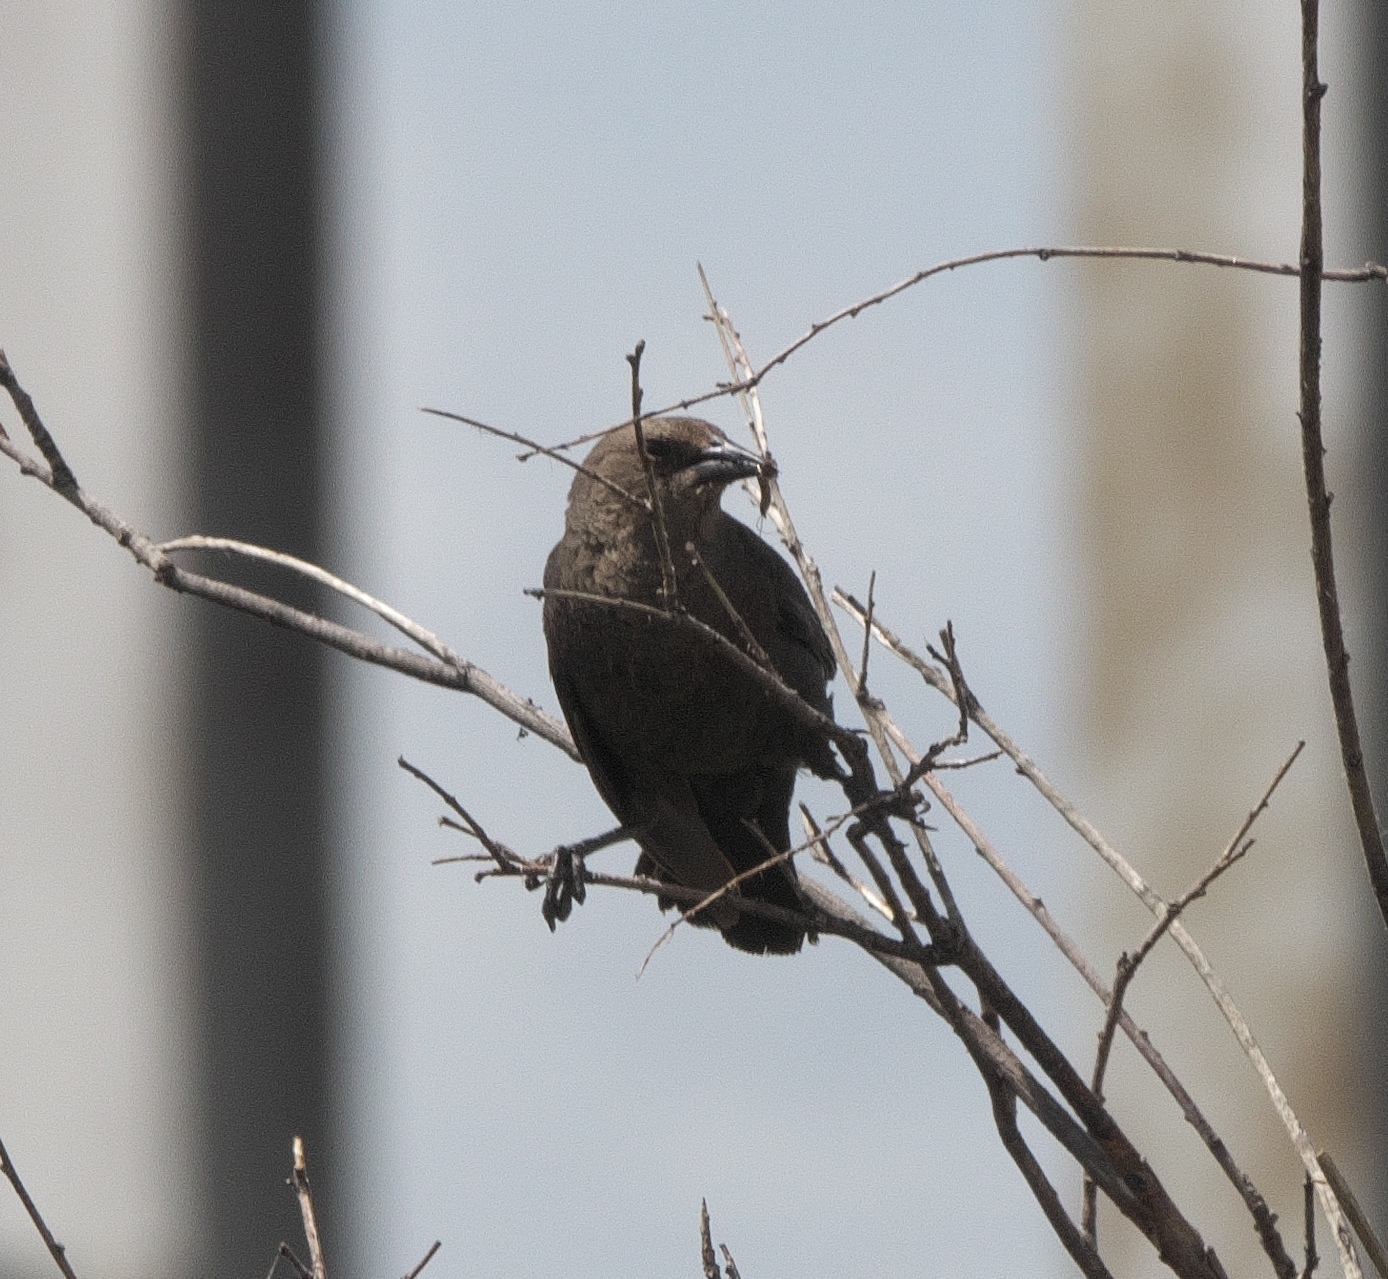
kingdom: Animalia
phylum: Chordata
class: Aves
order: Passeriformes
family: Icteridae
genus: Molothrus
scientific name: Molothrus ater
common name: Brown-headed cowbird
